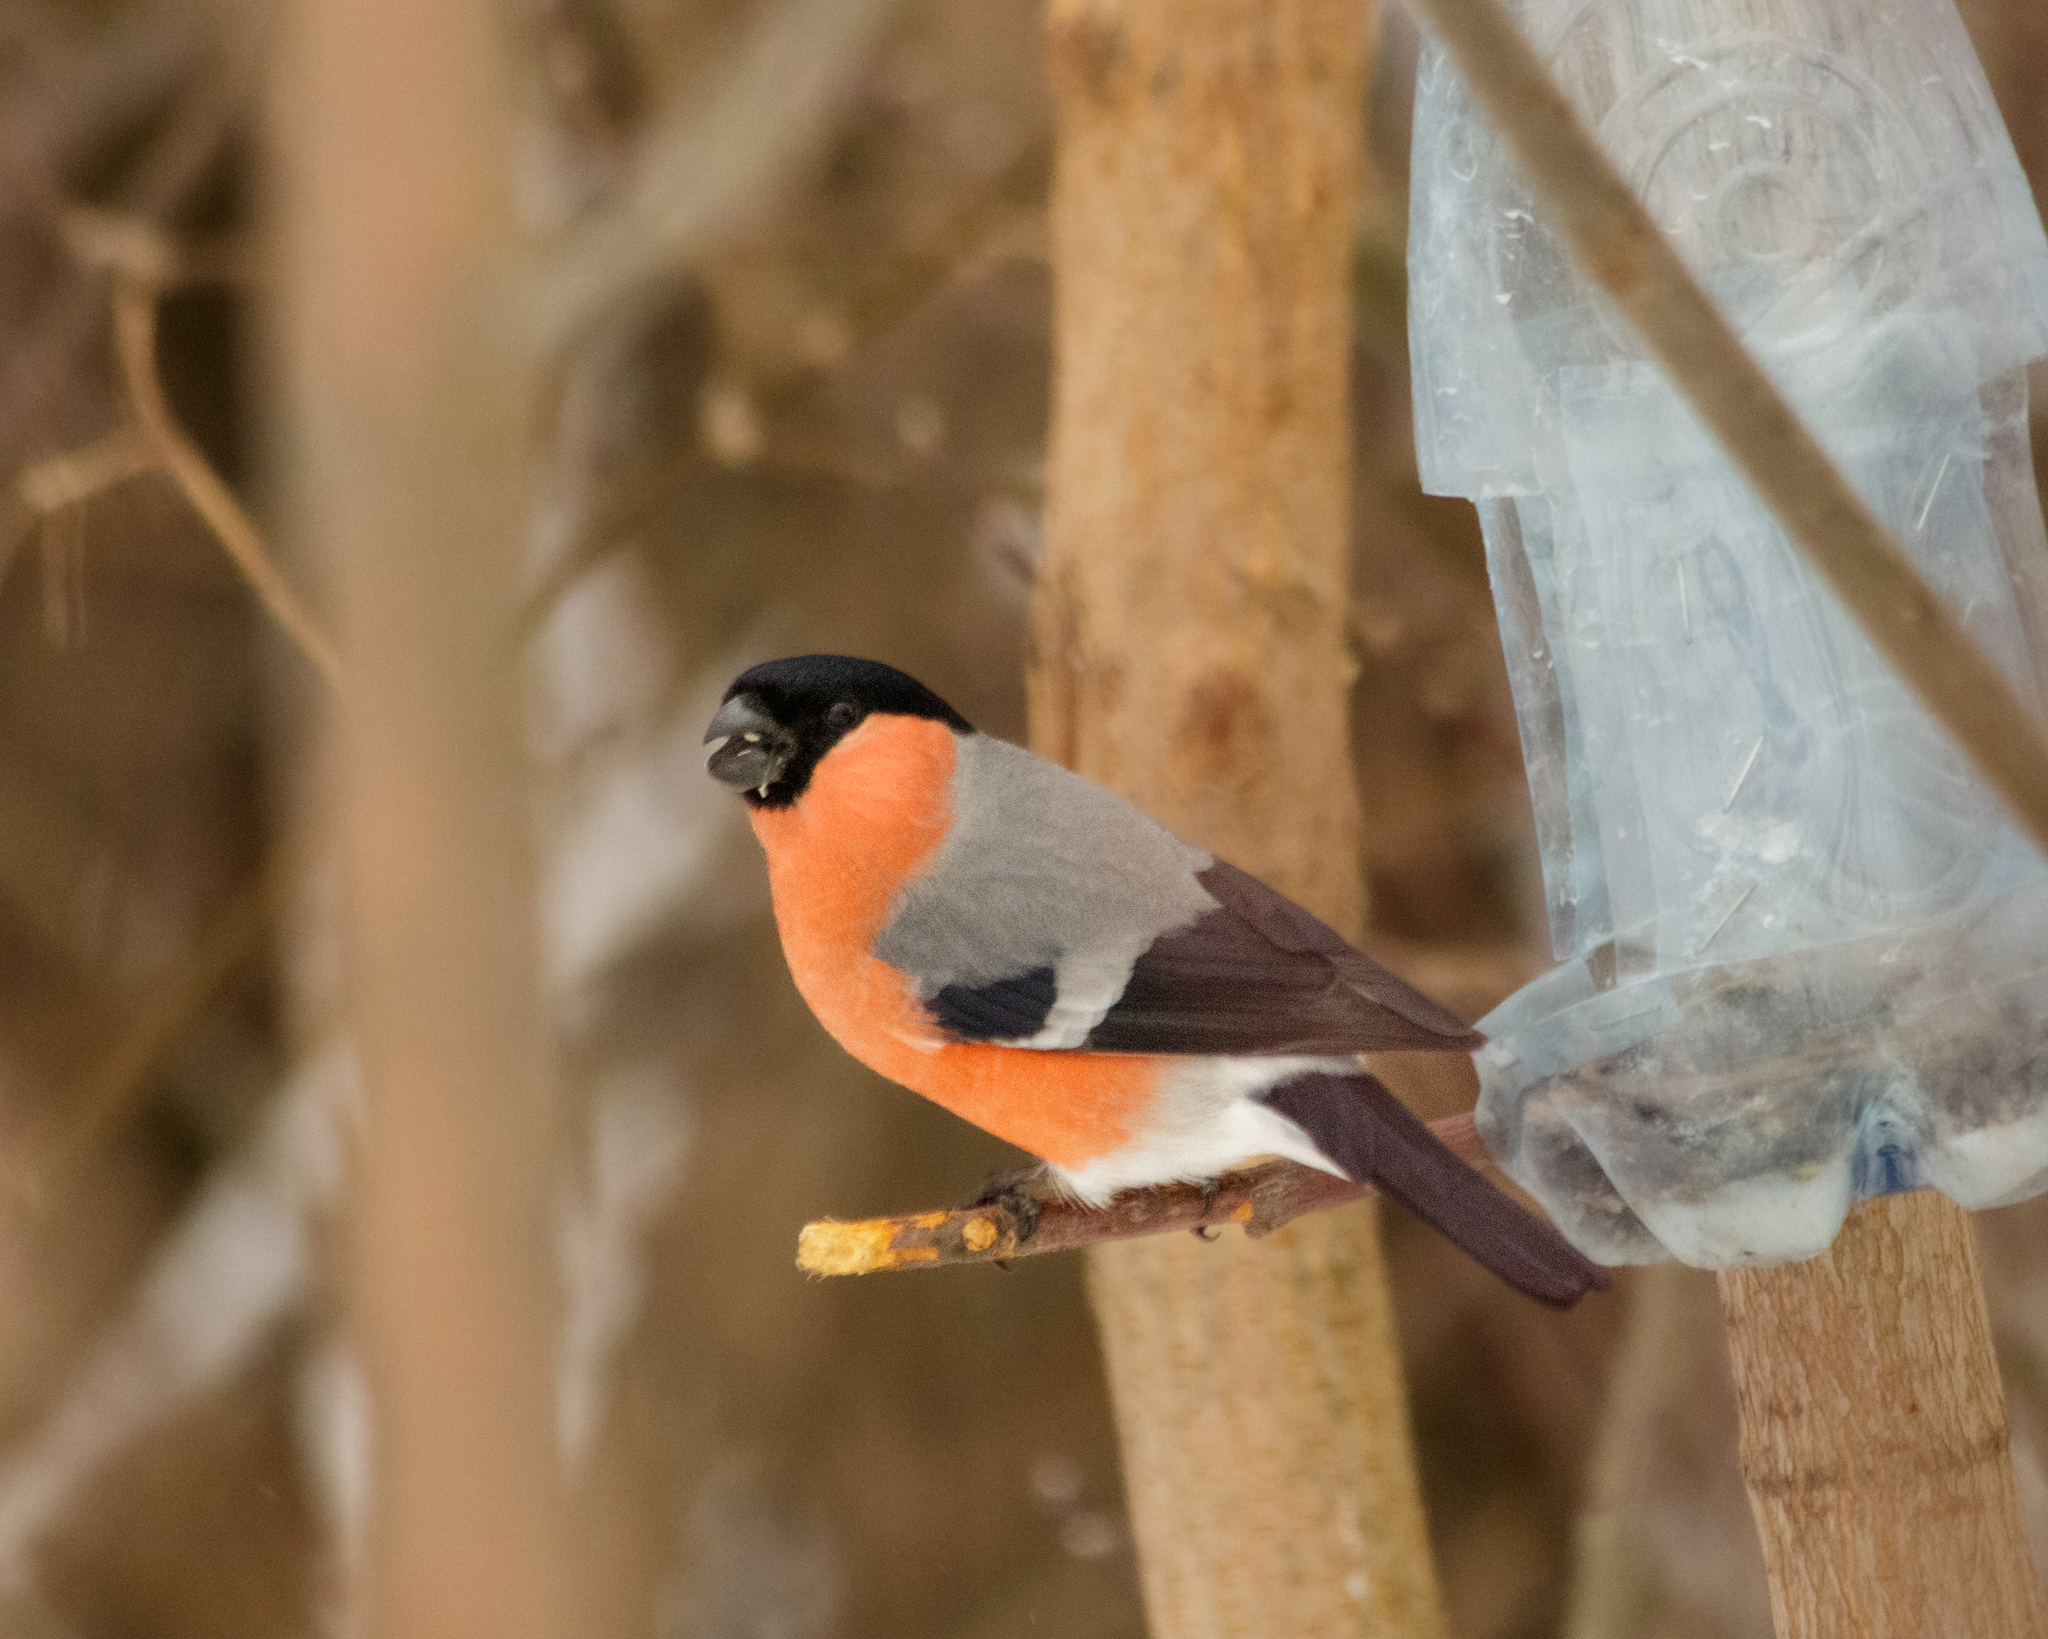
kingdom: Animalia
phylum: Chordata
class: Aves
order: Passeriformes
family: Fringillidae
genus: Pyrrhula
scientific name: Pyrrhula pyrrhula
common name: Eurasian bullfinch
